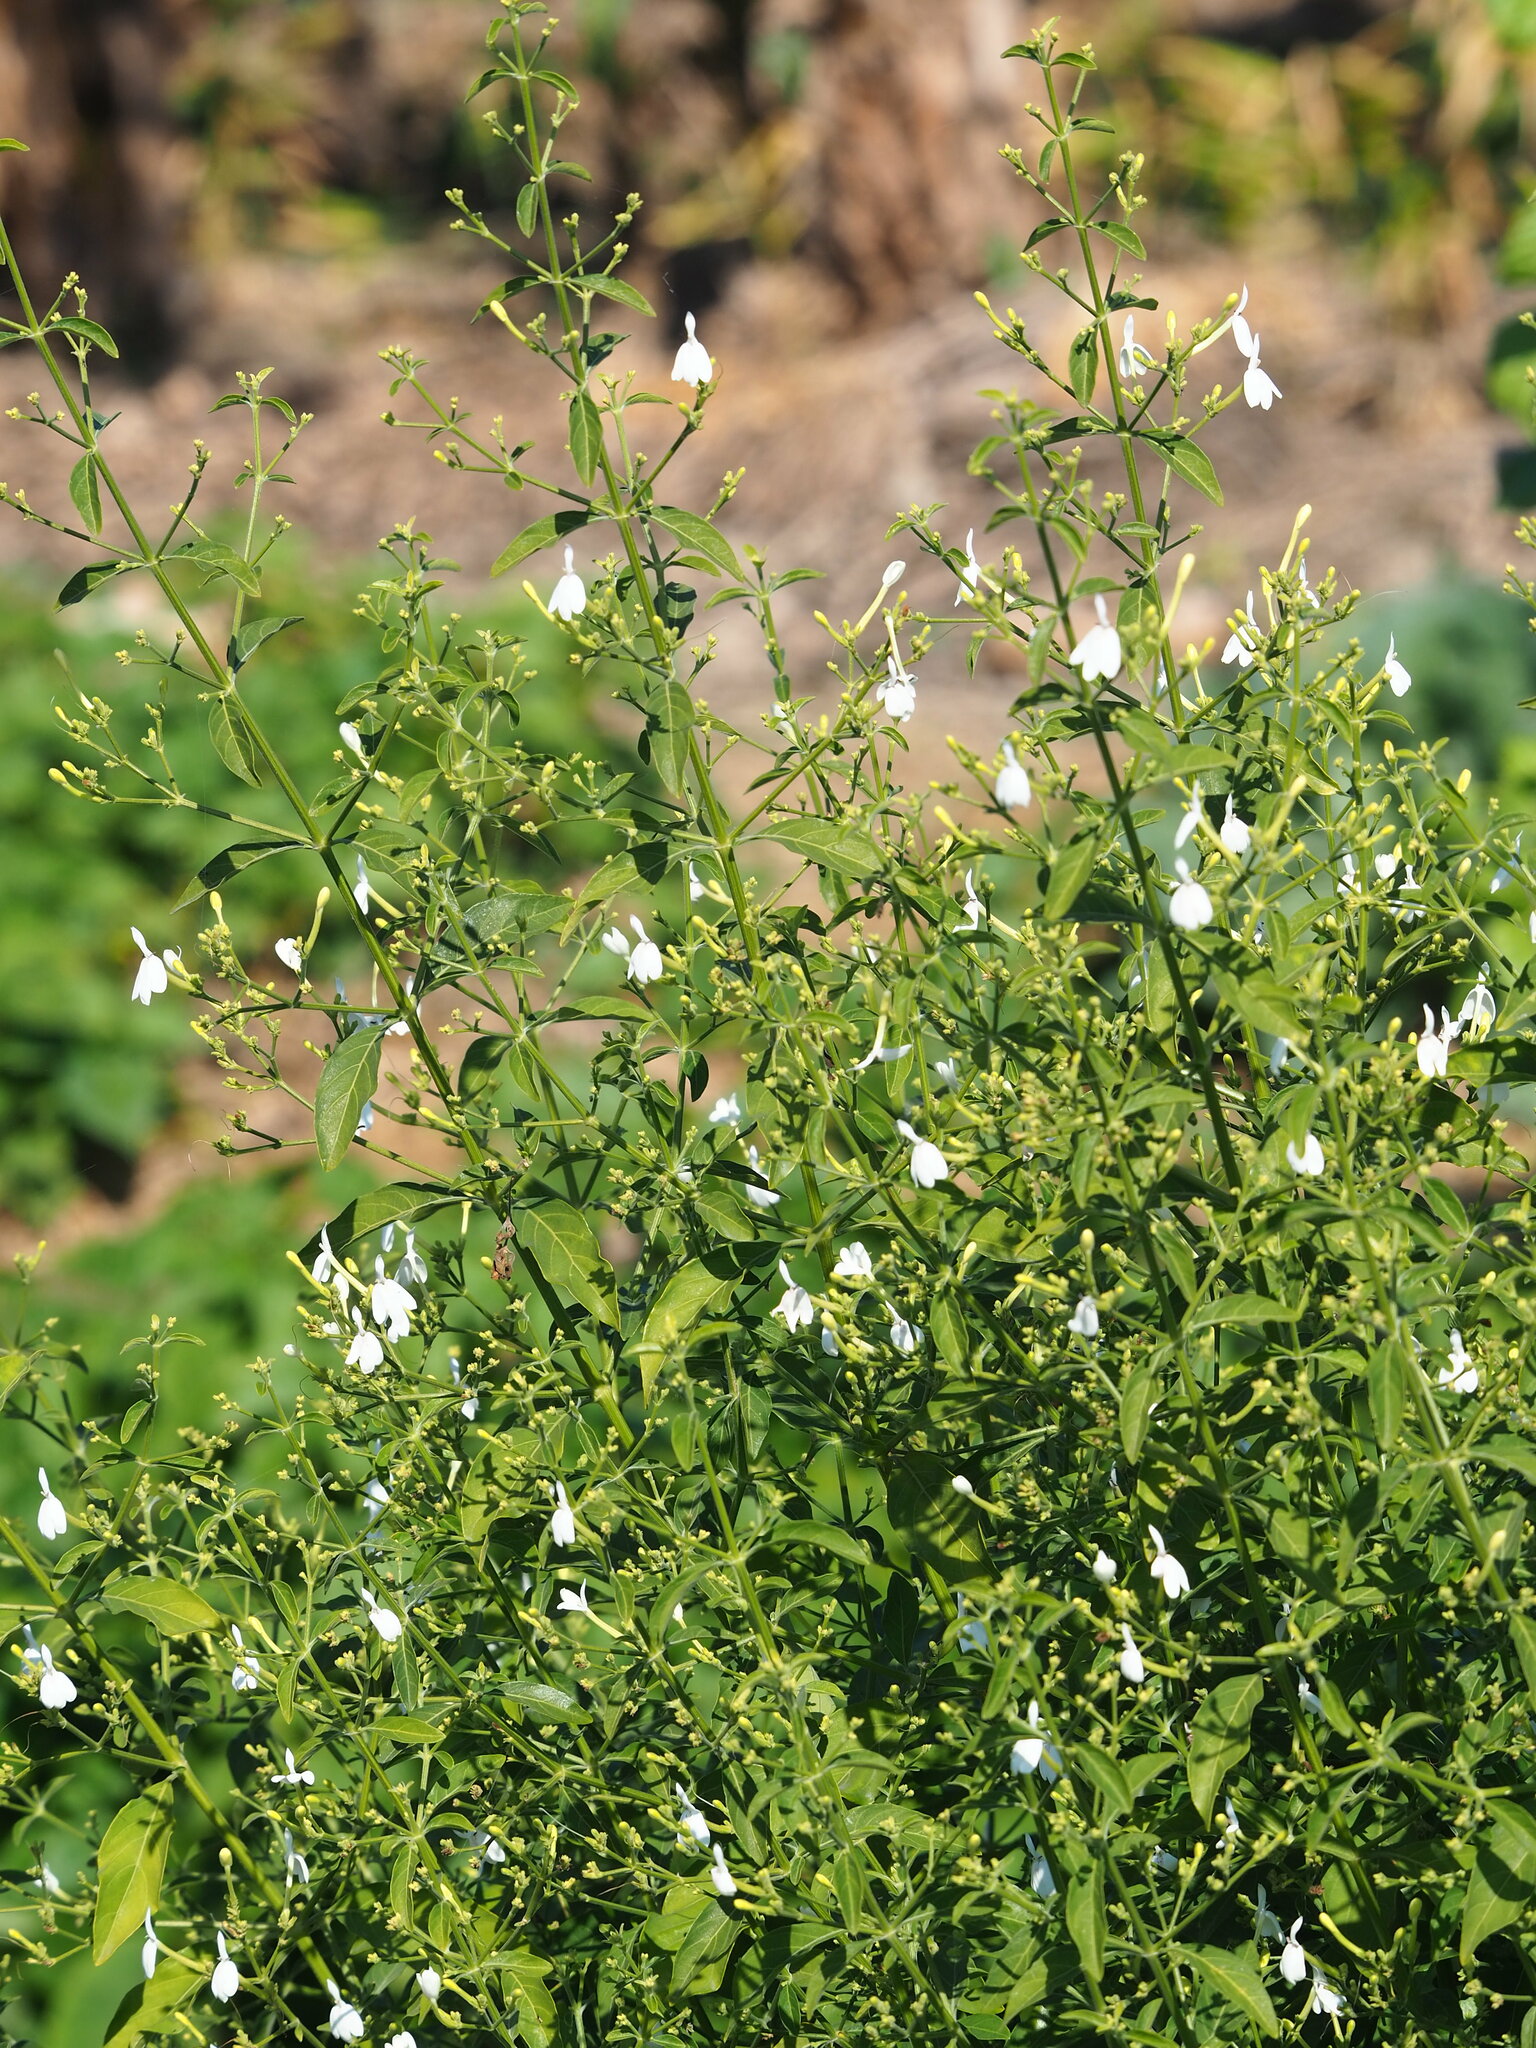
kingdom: Plantae
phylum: Tracheophyta
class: Magnoliopsida
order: Lamiales
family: Acanthaceae
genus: Rhinacanthus
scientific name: Rhinacanthus nasutus
